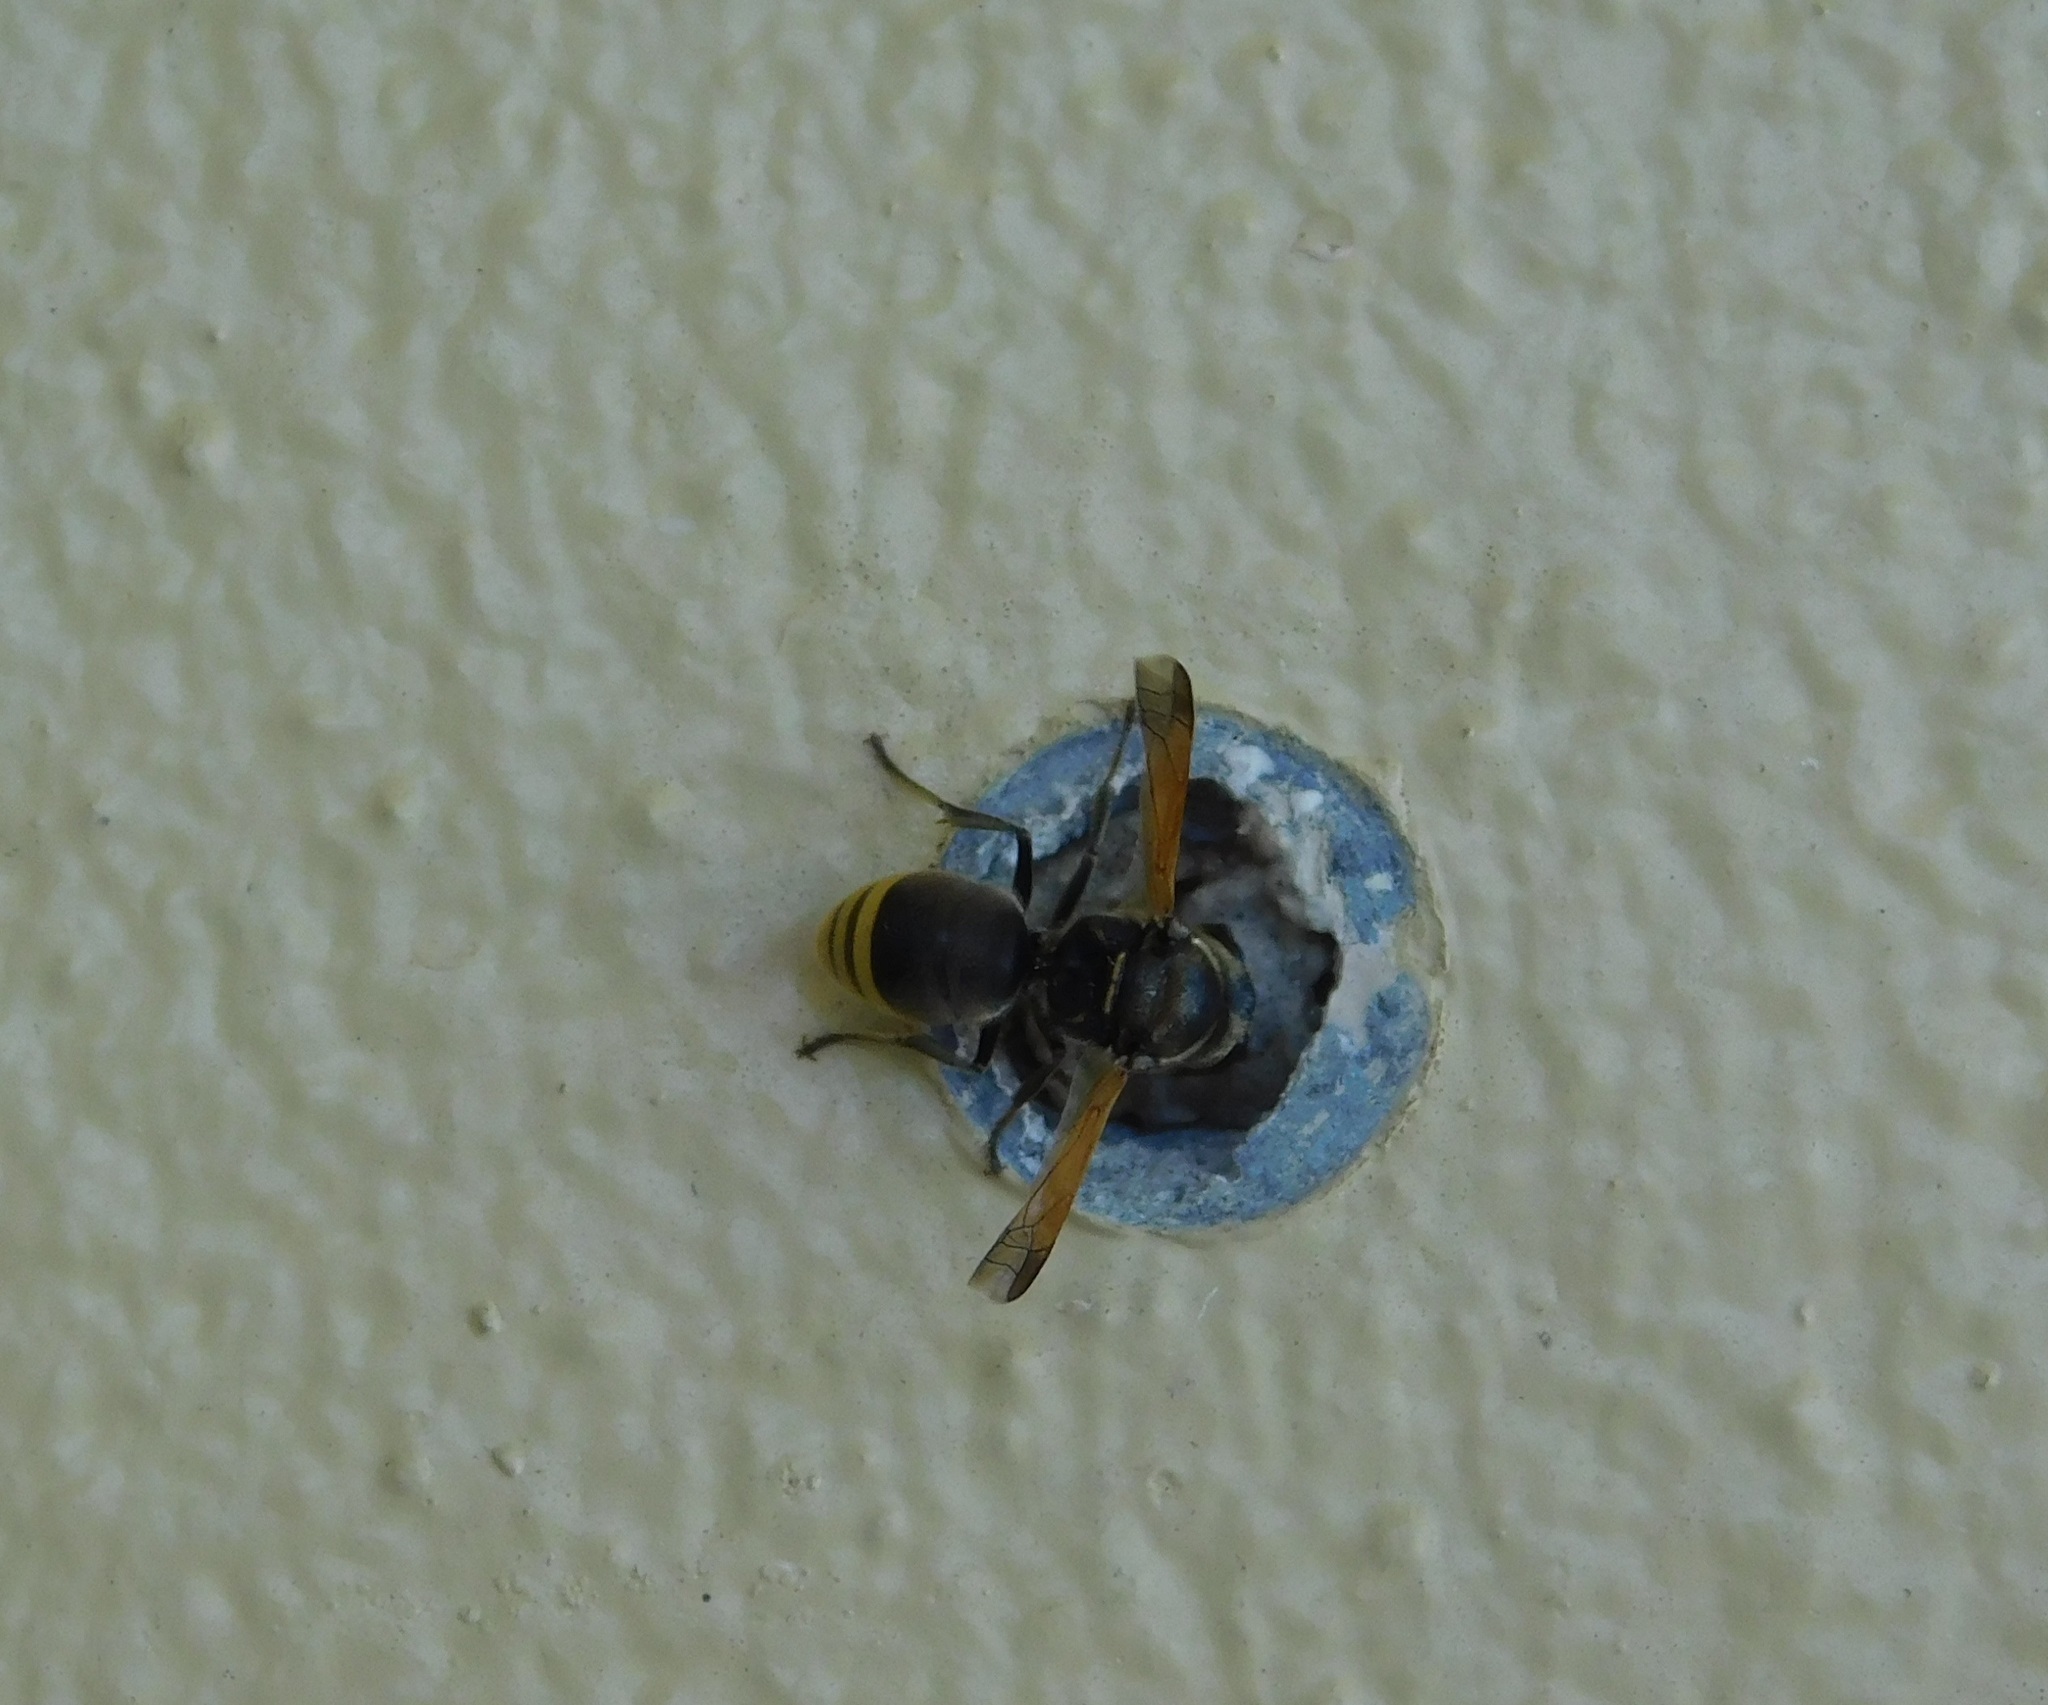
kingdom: Animalia
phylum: Arthropoda
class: Insecta
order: Hymenoptera
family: Eumenidae
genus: Pachodynerus
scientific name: Pachodynerus nasidens
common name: Key hole wasp
